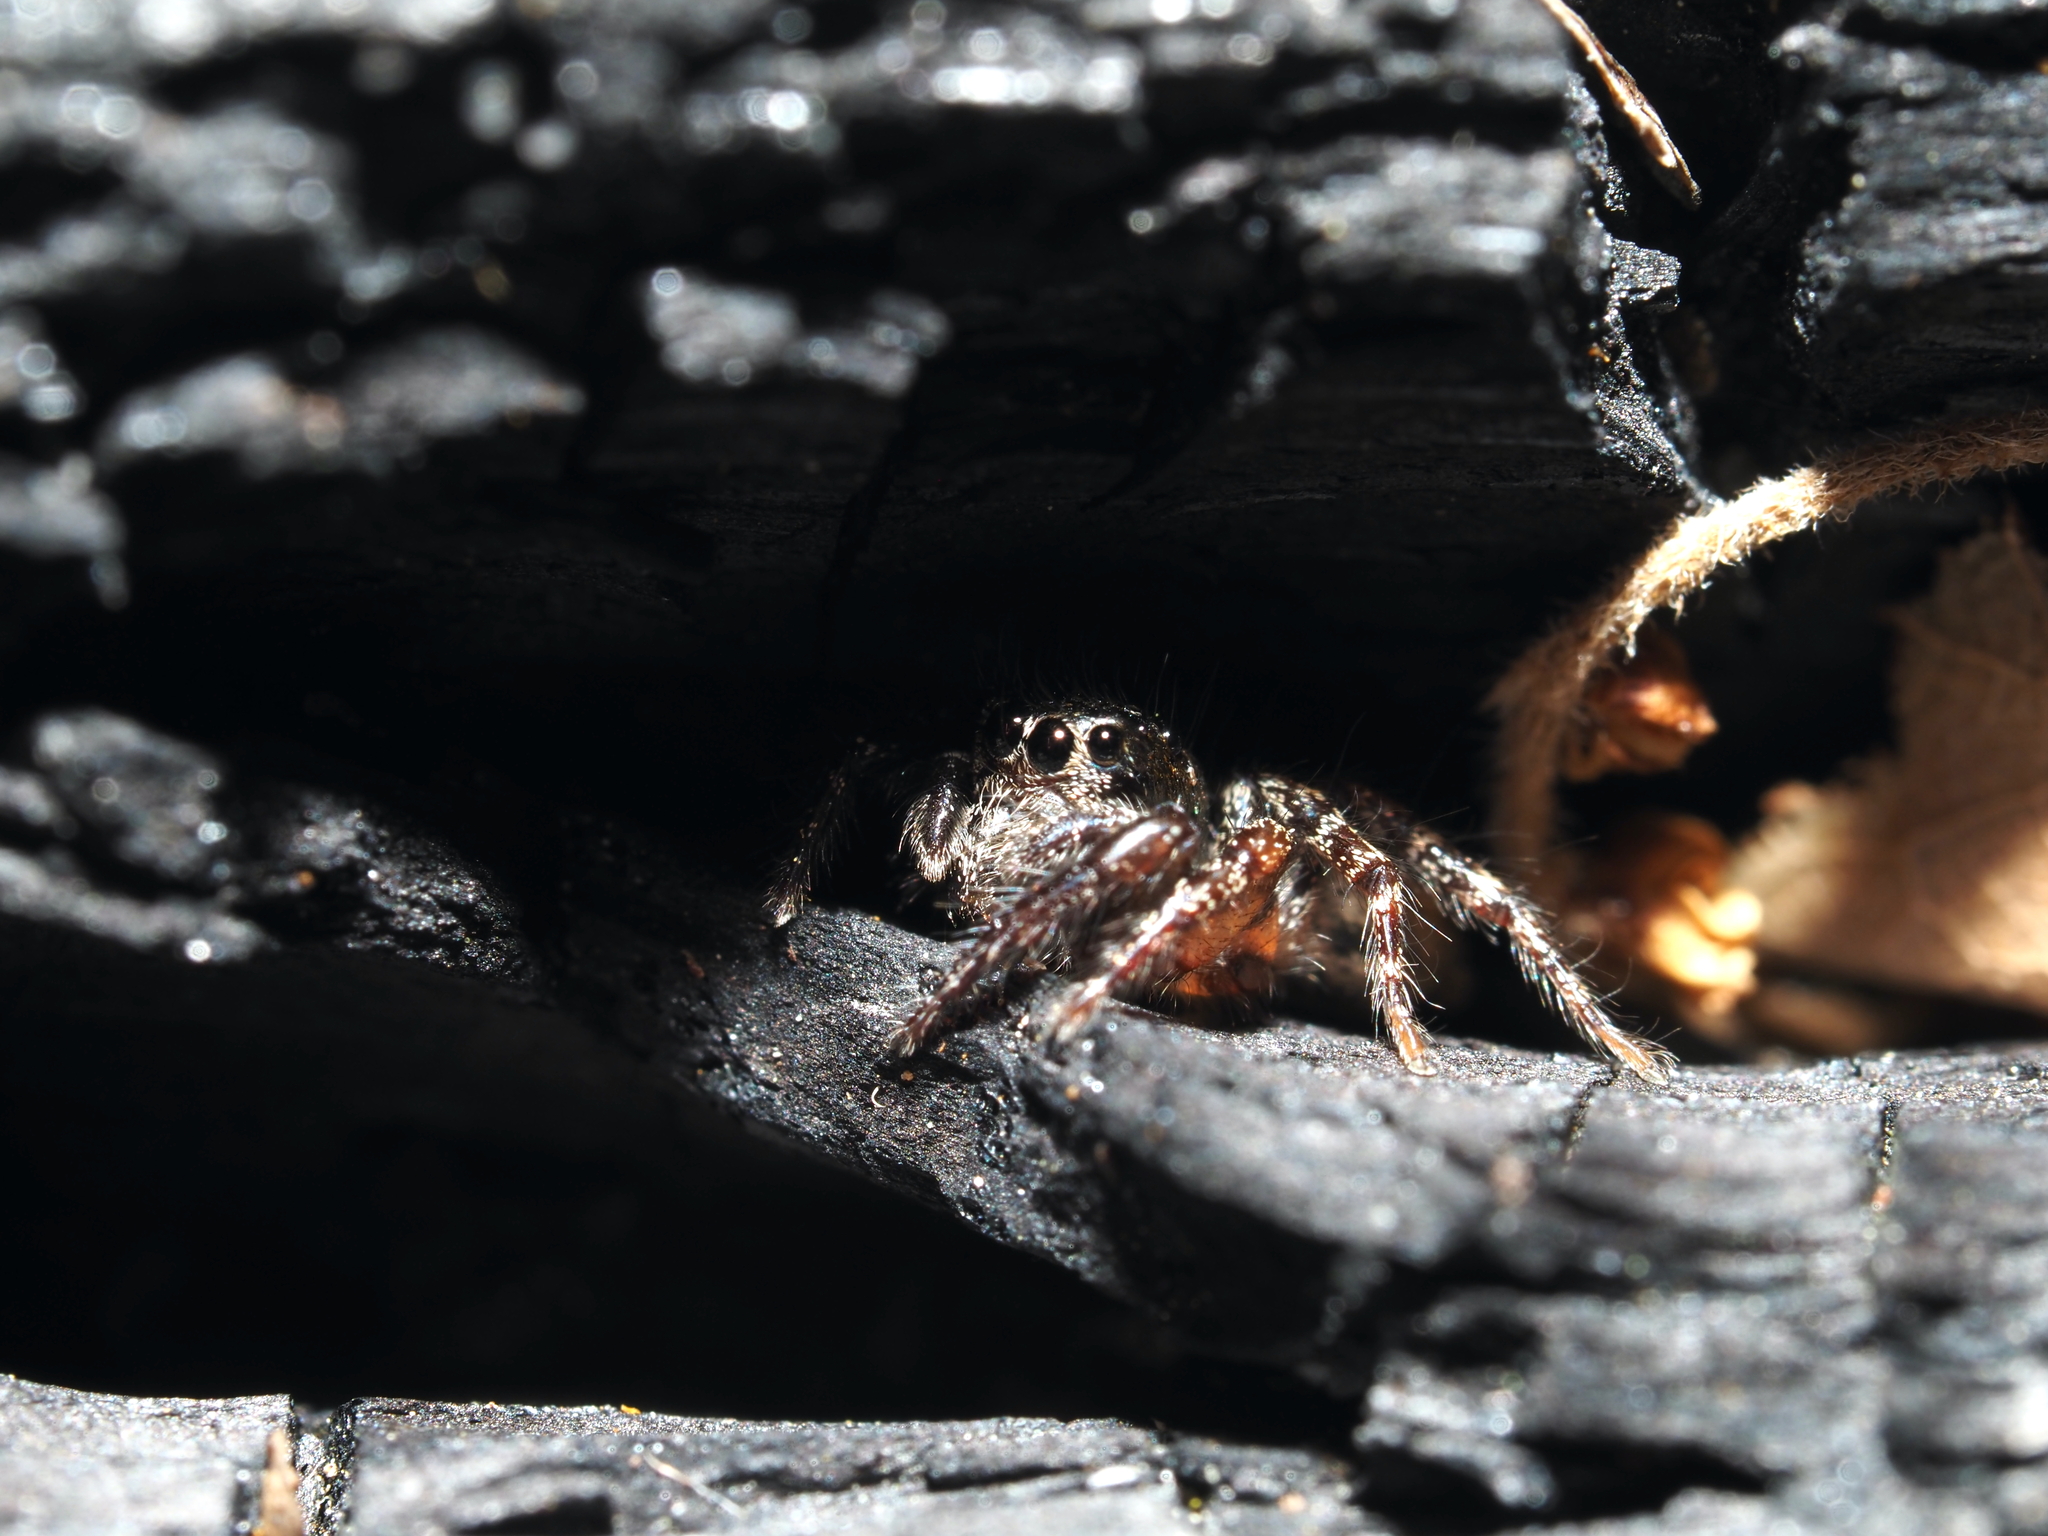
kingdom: Animalia
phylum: Arthropoda
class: Arachnida
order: Araneae
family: Salticidae
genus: Anasaitis
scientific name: Anasaitis canosa
